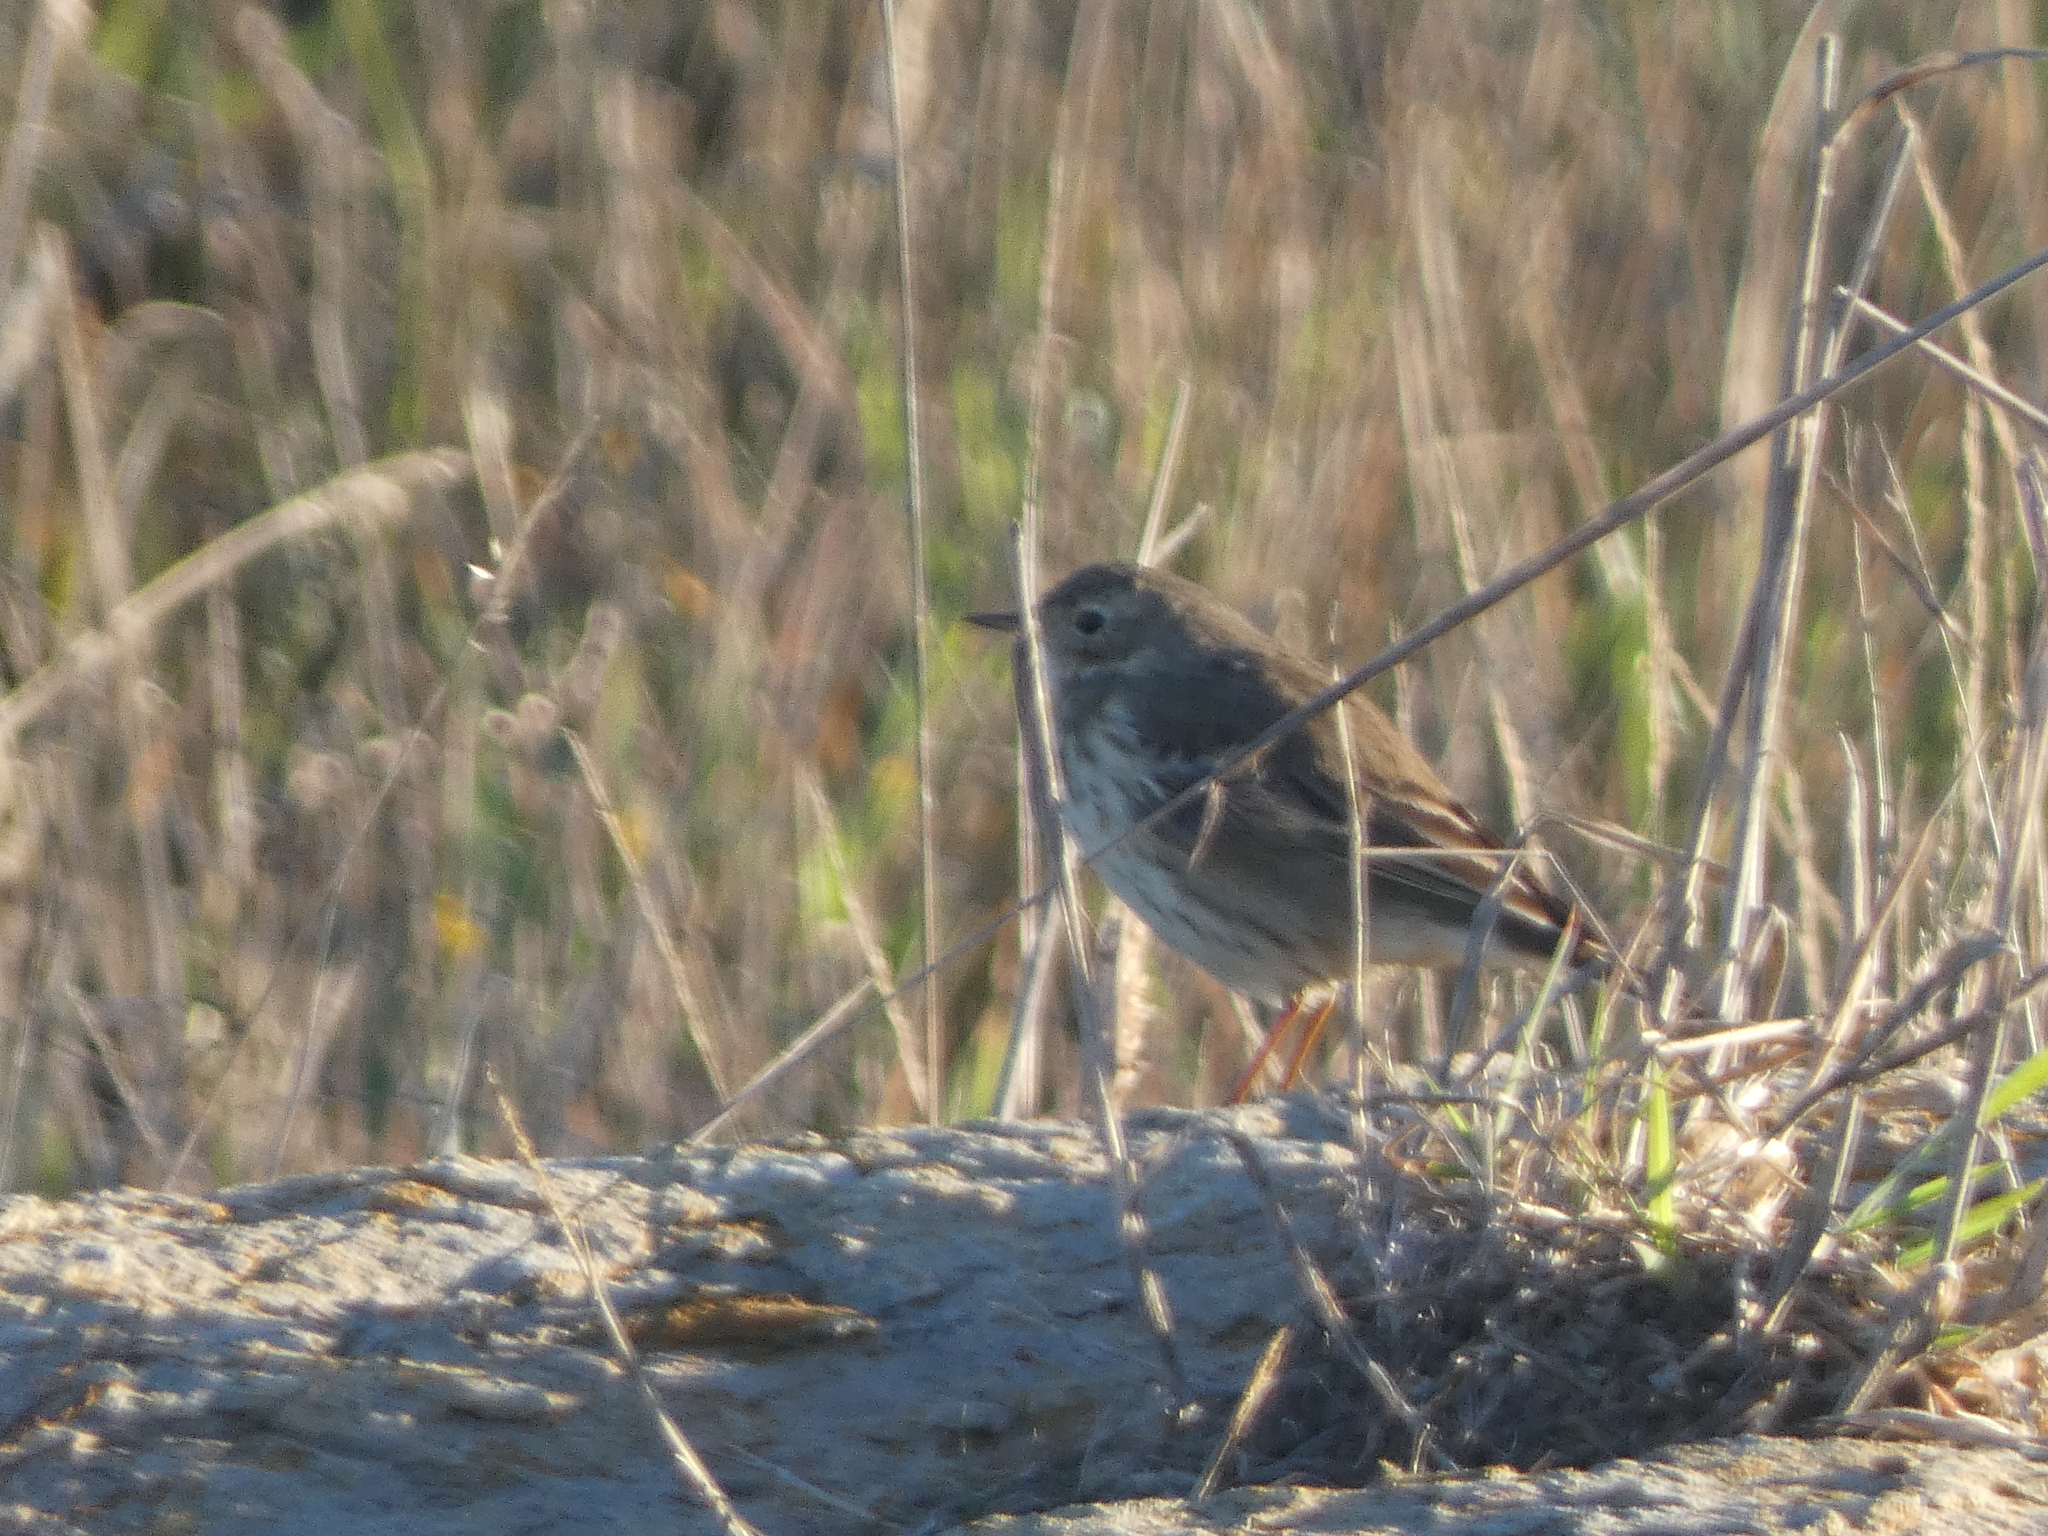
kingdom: Animalia
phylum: Chordata
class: Aves
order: Passeriformes
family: Motacillidae
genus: Anthus
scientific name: Anthus rubescens
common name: Buff-bellied pipit
